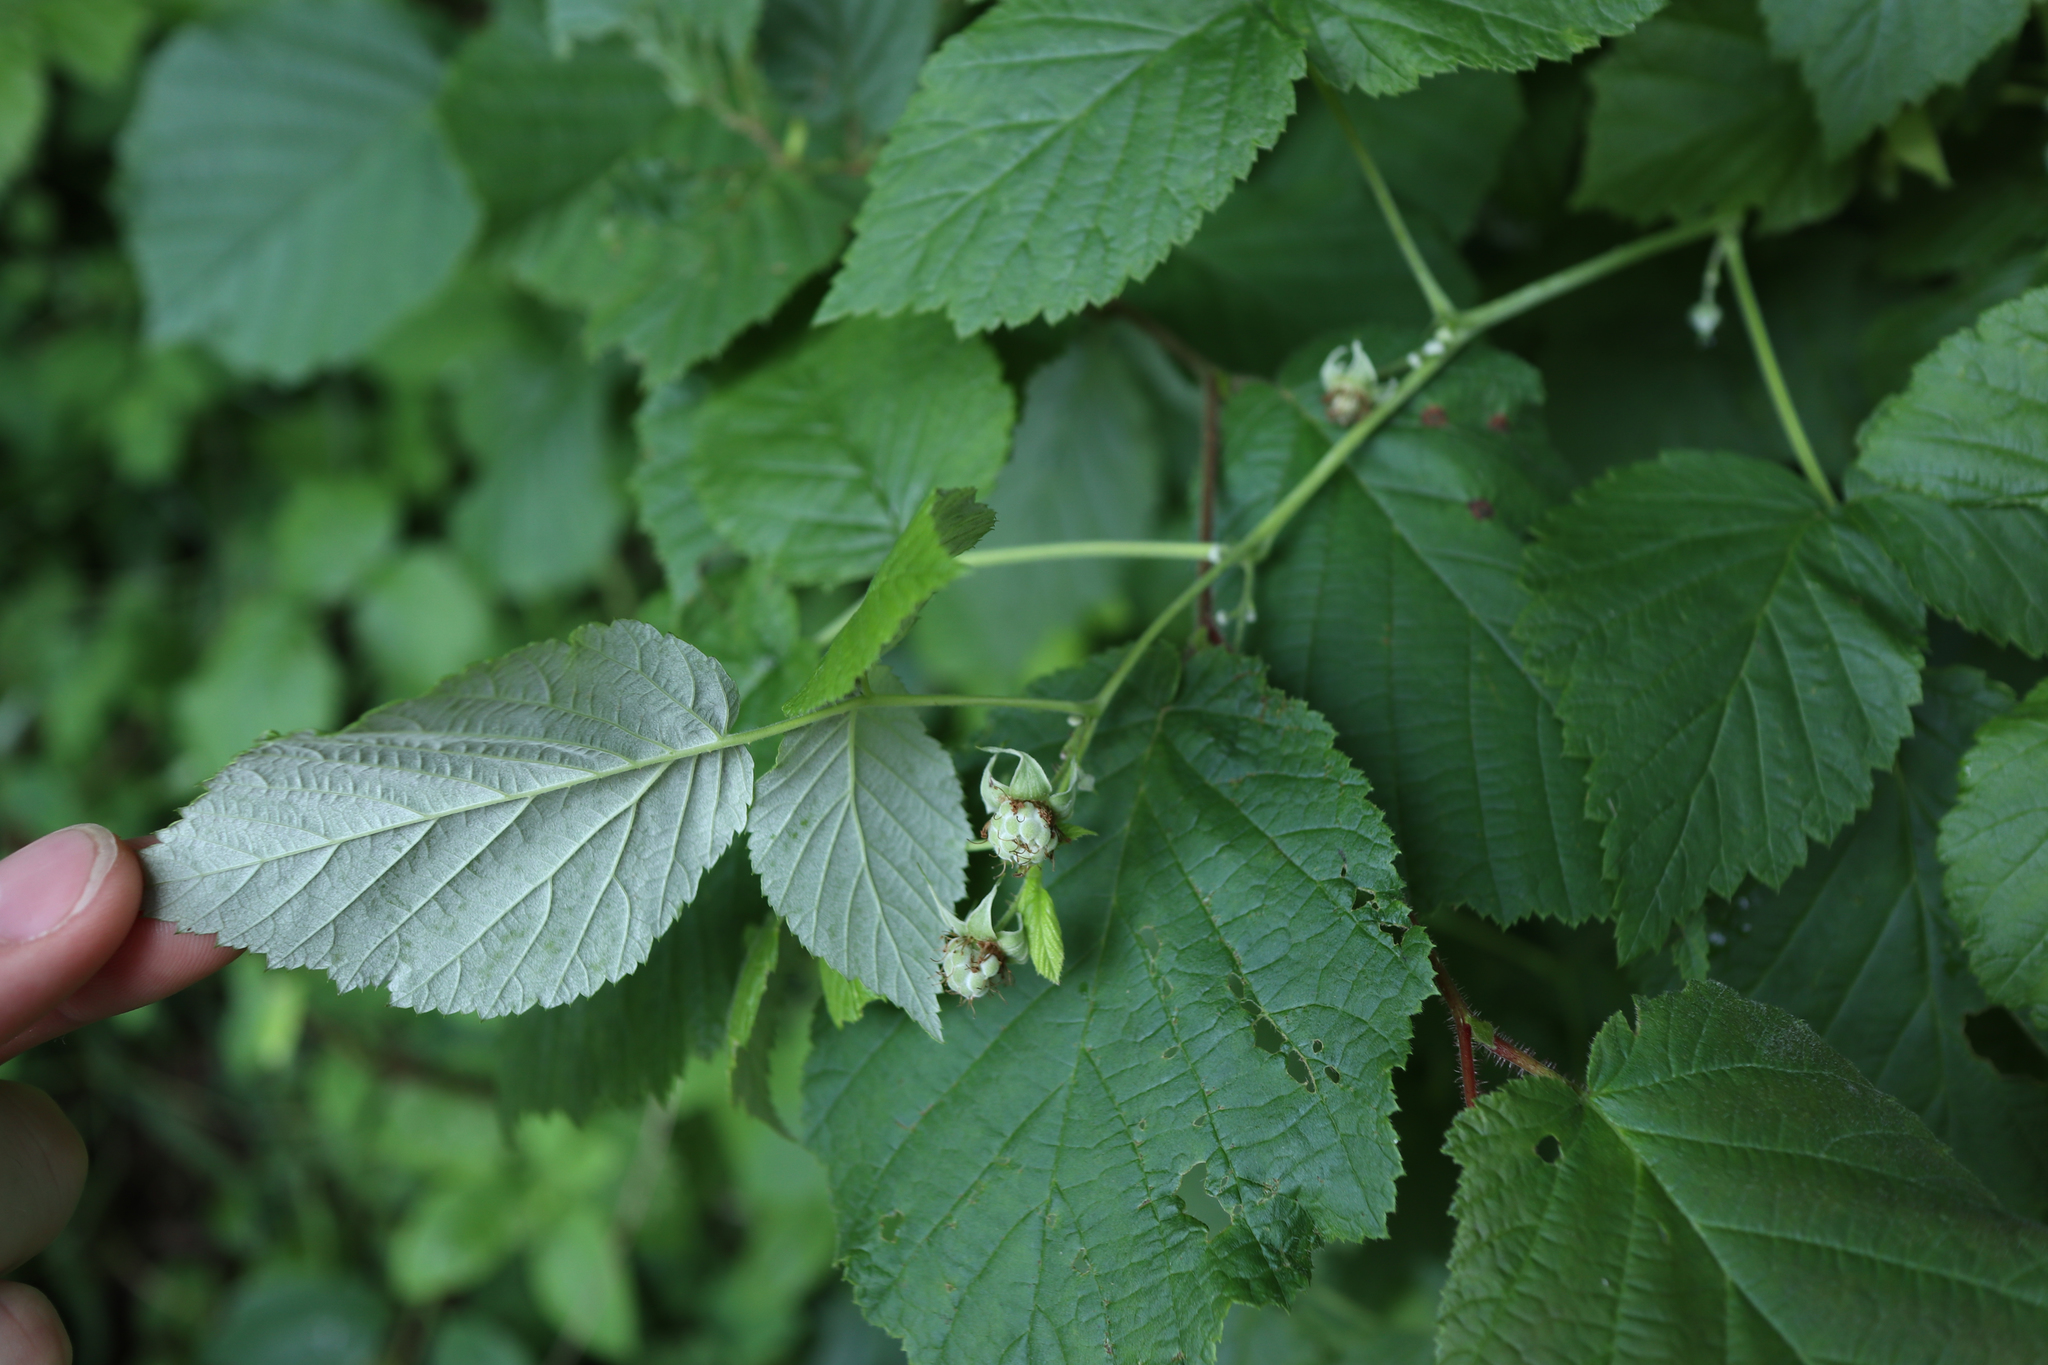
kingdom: Plantae
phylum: Tracheophyta
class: Magnoliopsida
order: Rosales
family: Rosaceae
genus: Rubus
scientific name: Rubus idaeus
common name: Raspberry
